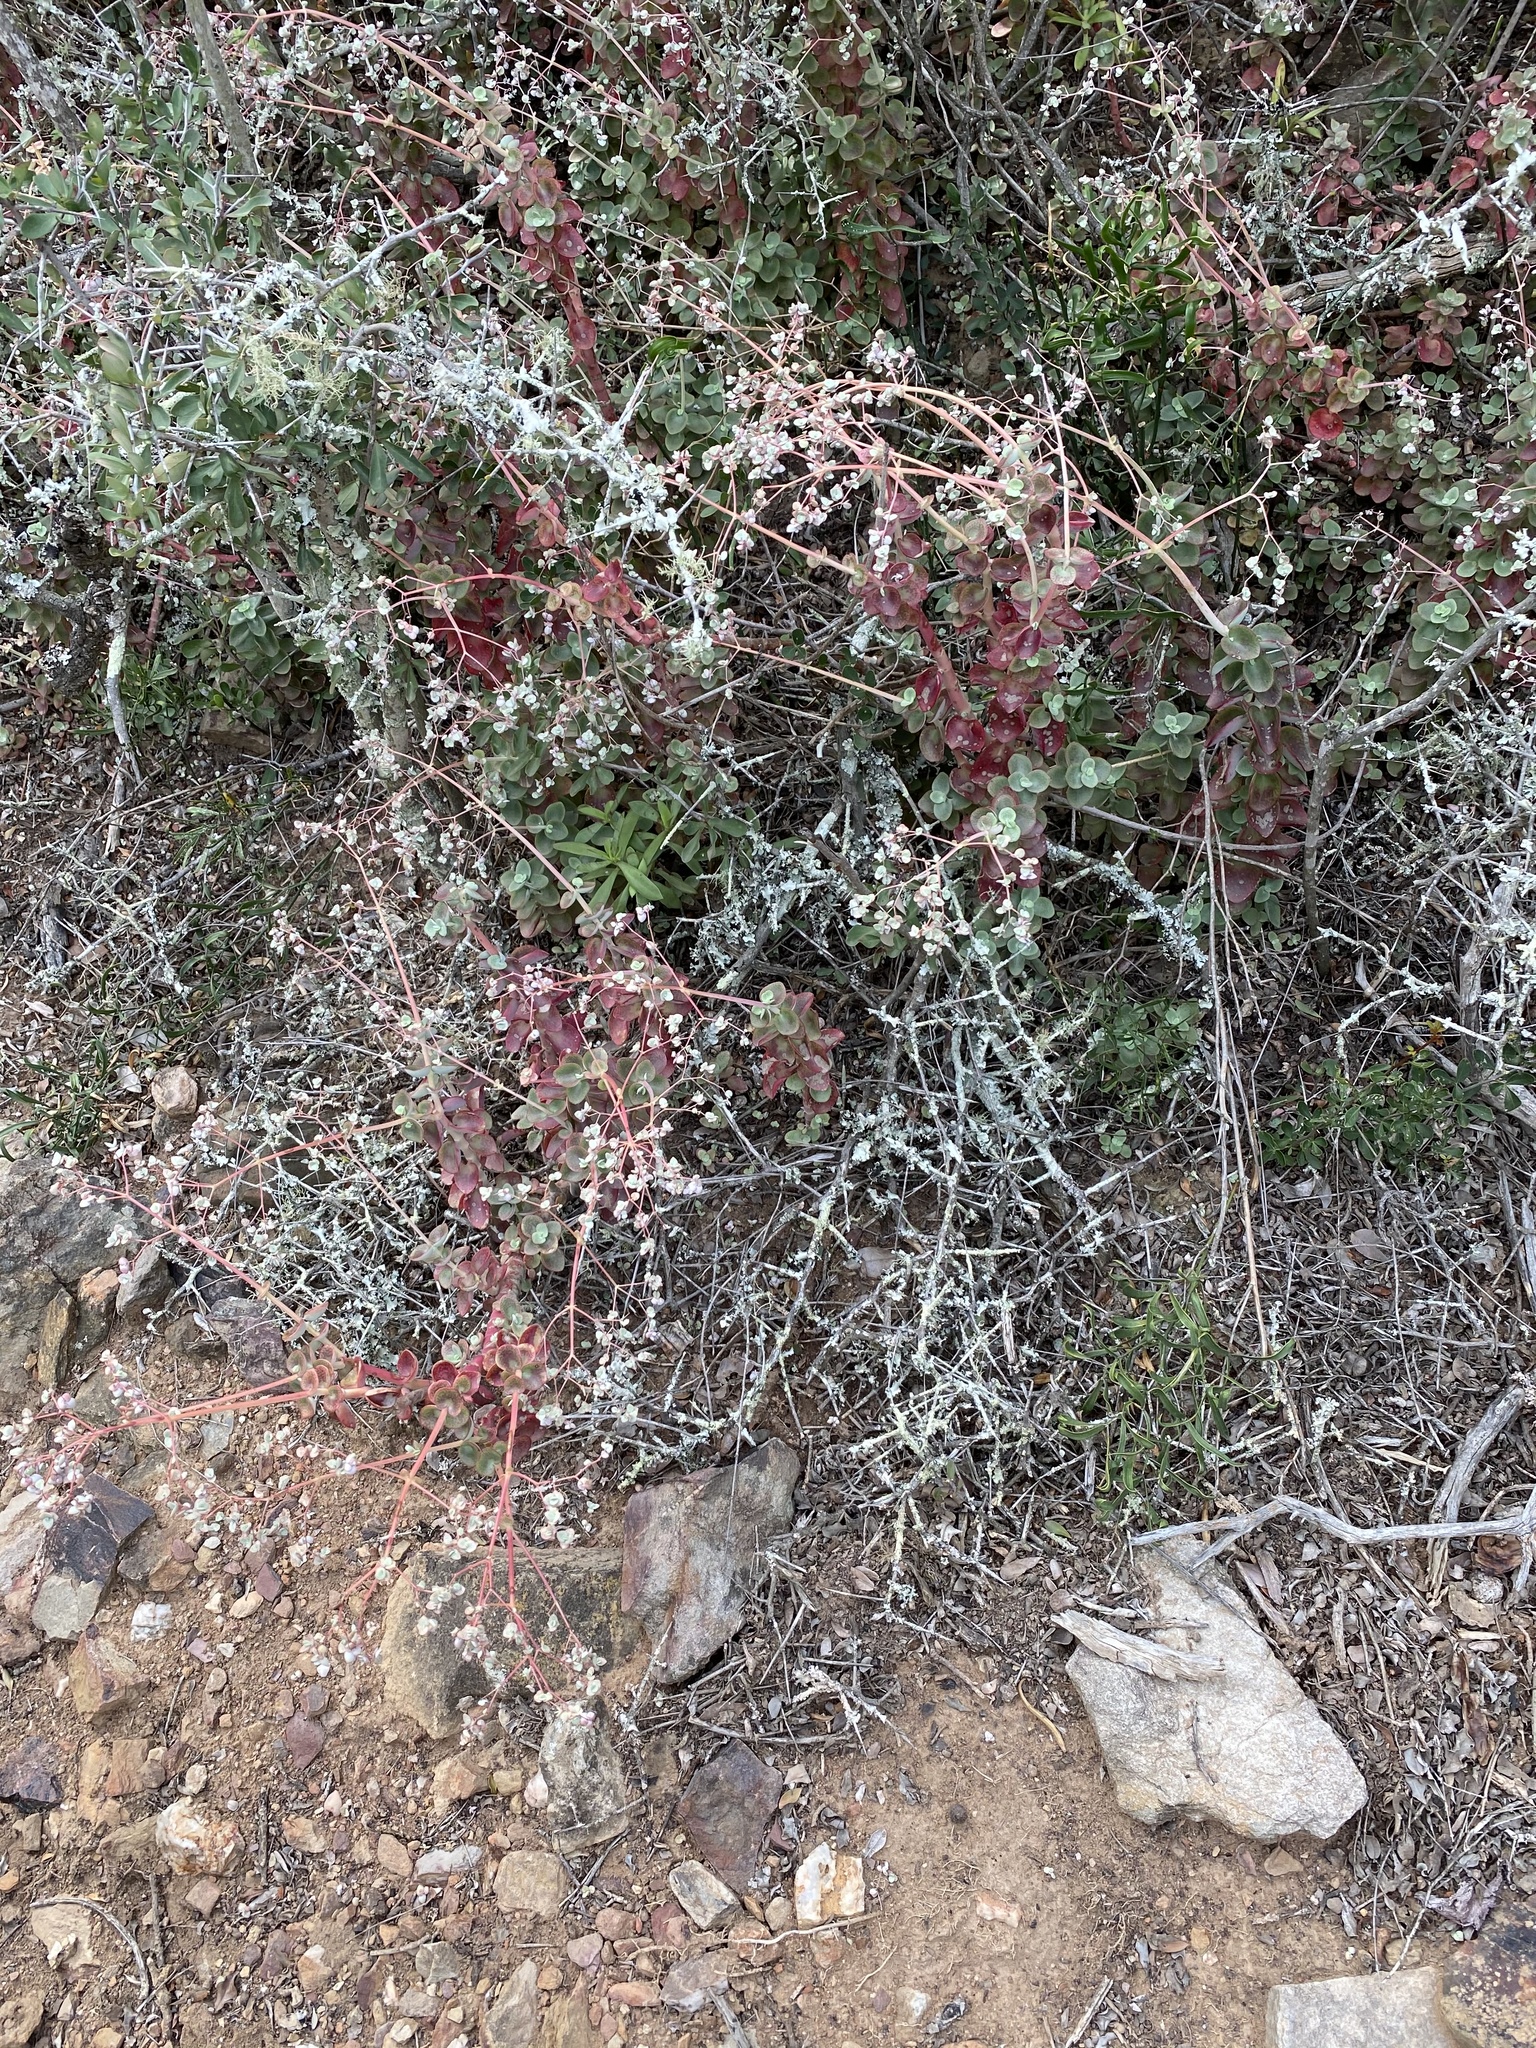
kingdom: Plantae
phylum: Tracheophyta
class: Magnoliopsida
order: Saxifragales
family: Crassulaceae
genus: Crassula
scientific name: Crassula cordata
